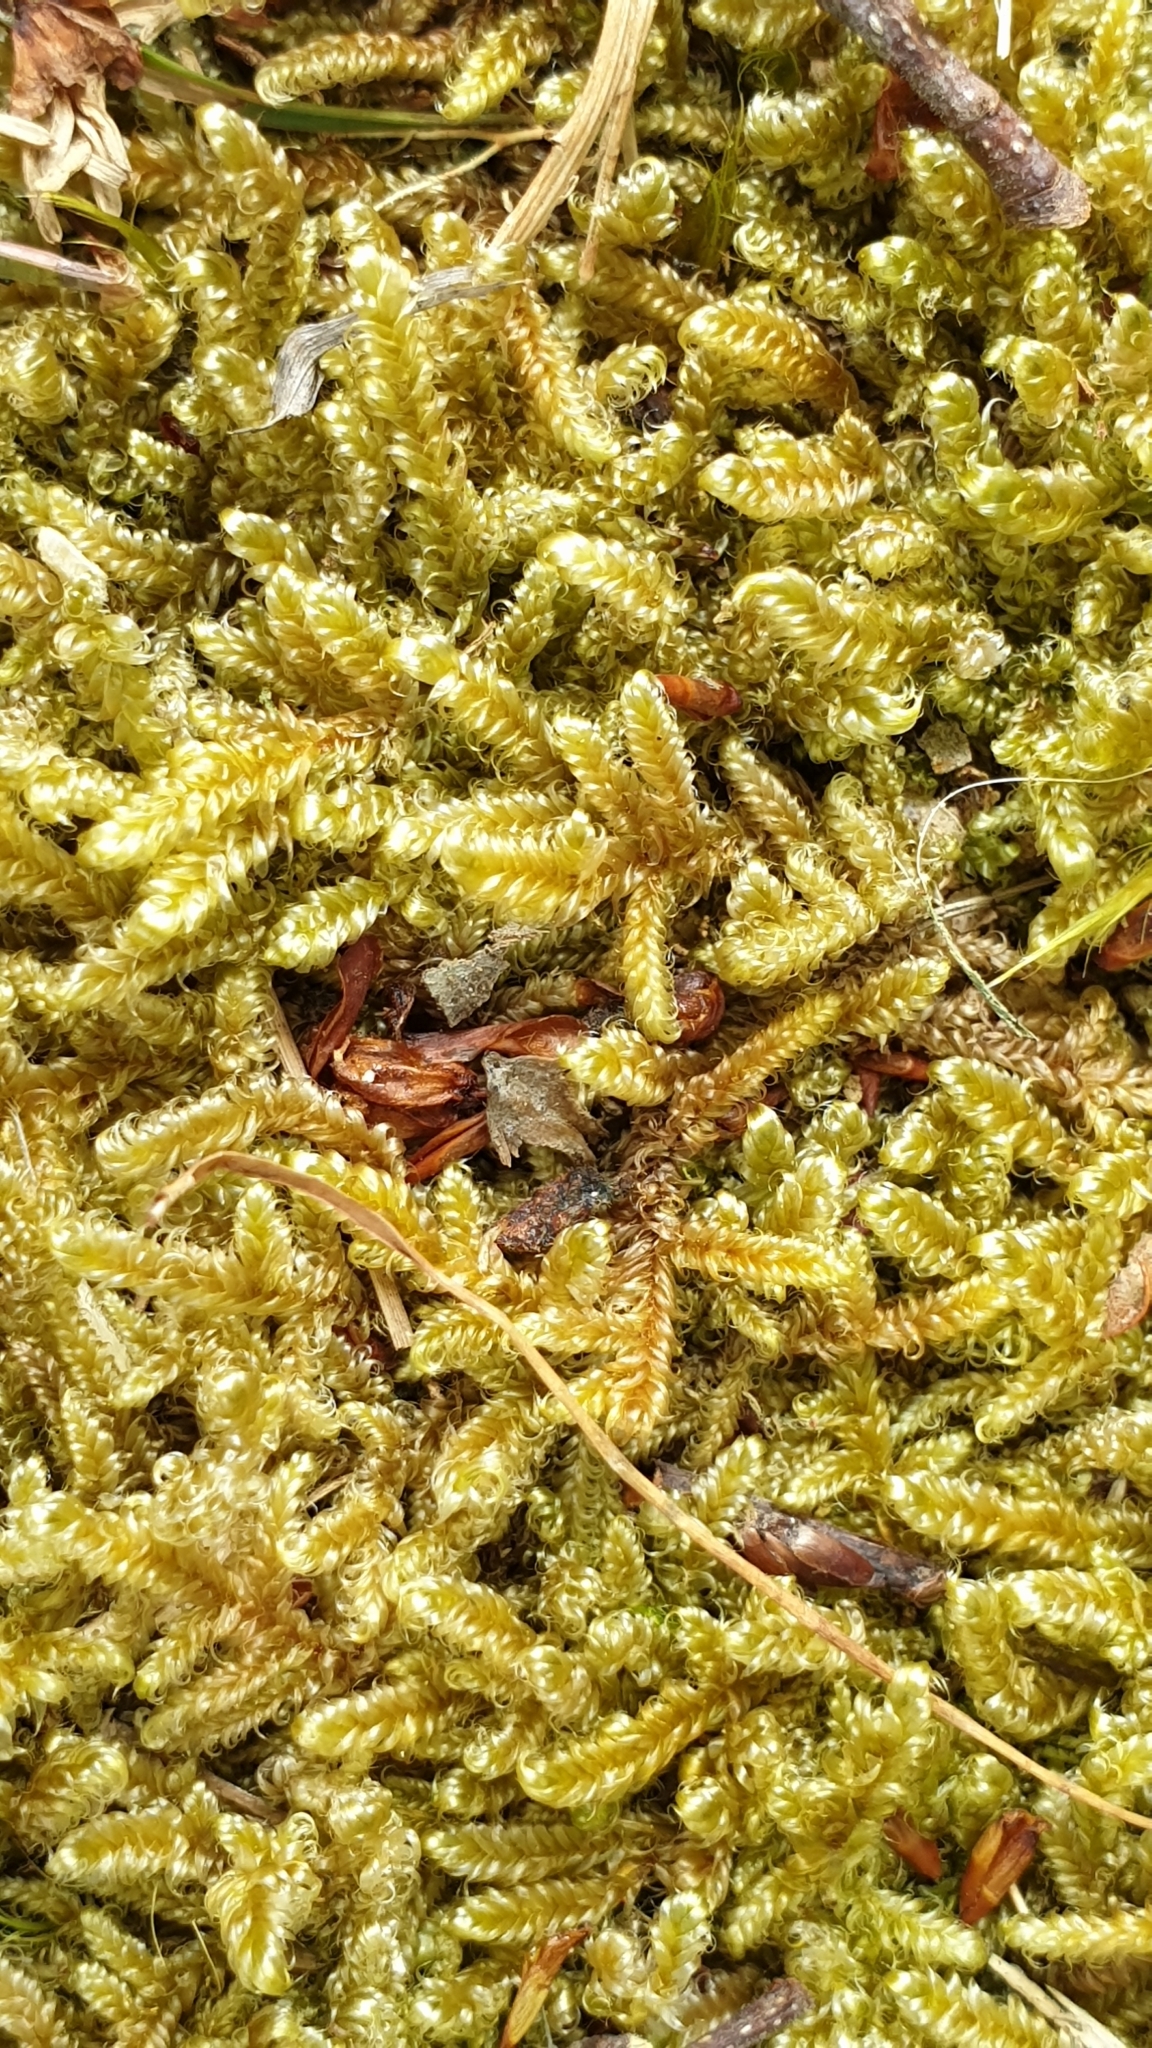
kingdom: Plantae
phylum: Bryophyta
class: Bryopsida
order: Hypnales
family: Hypnaceae
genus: Hypnum
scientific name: Hypnum cupressiforme
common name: Cypress-leaved plait-moss
